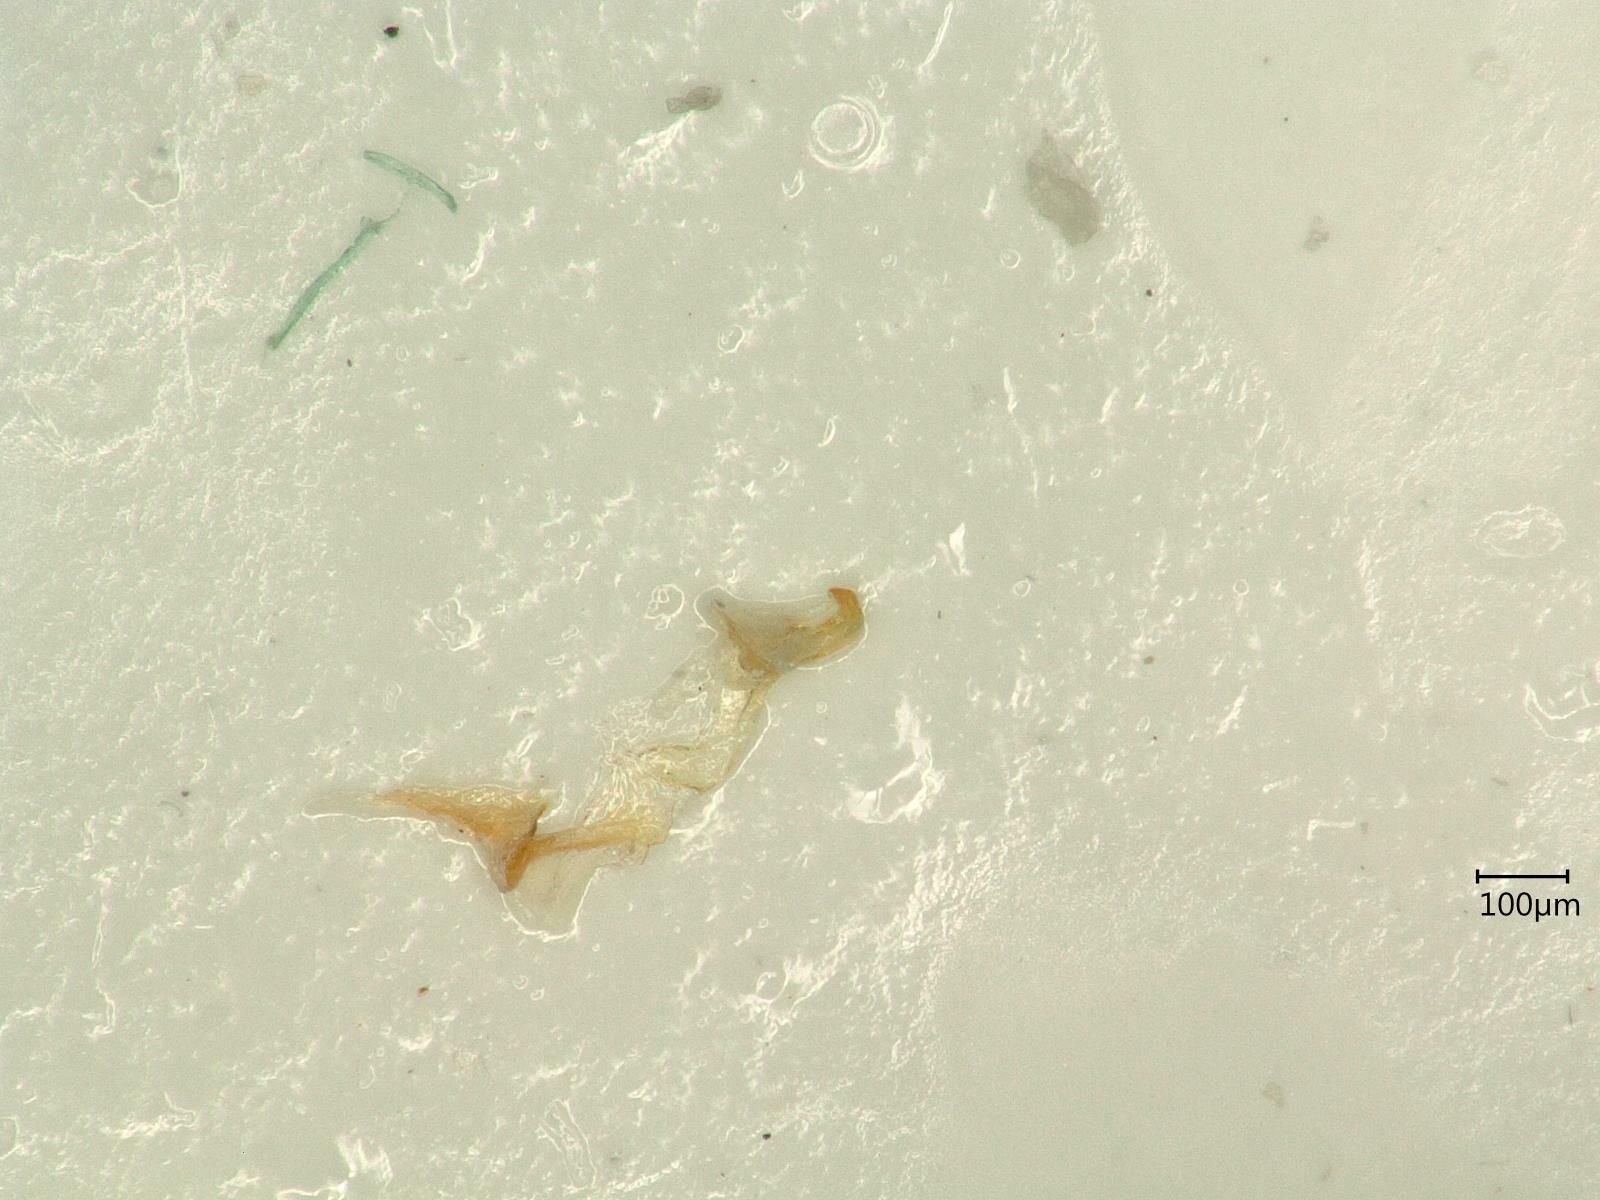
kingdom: Animalia
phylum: Arthropoda
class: Insecta
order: Hemiptera
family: Cicadellidae
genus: Orientus
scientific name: Orientus ishidae
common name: Japanese leafhopper
